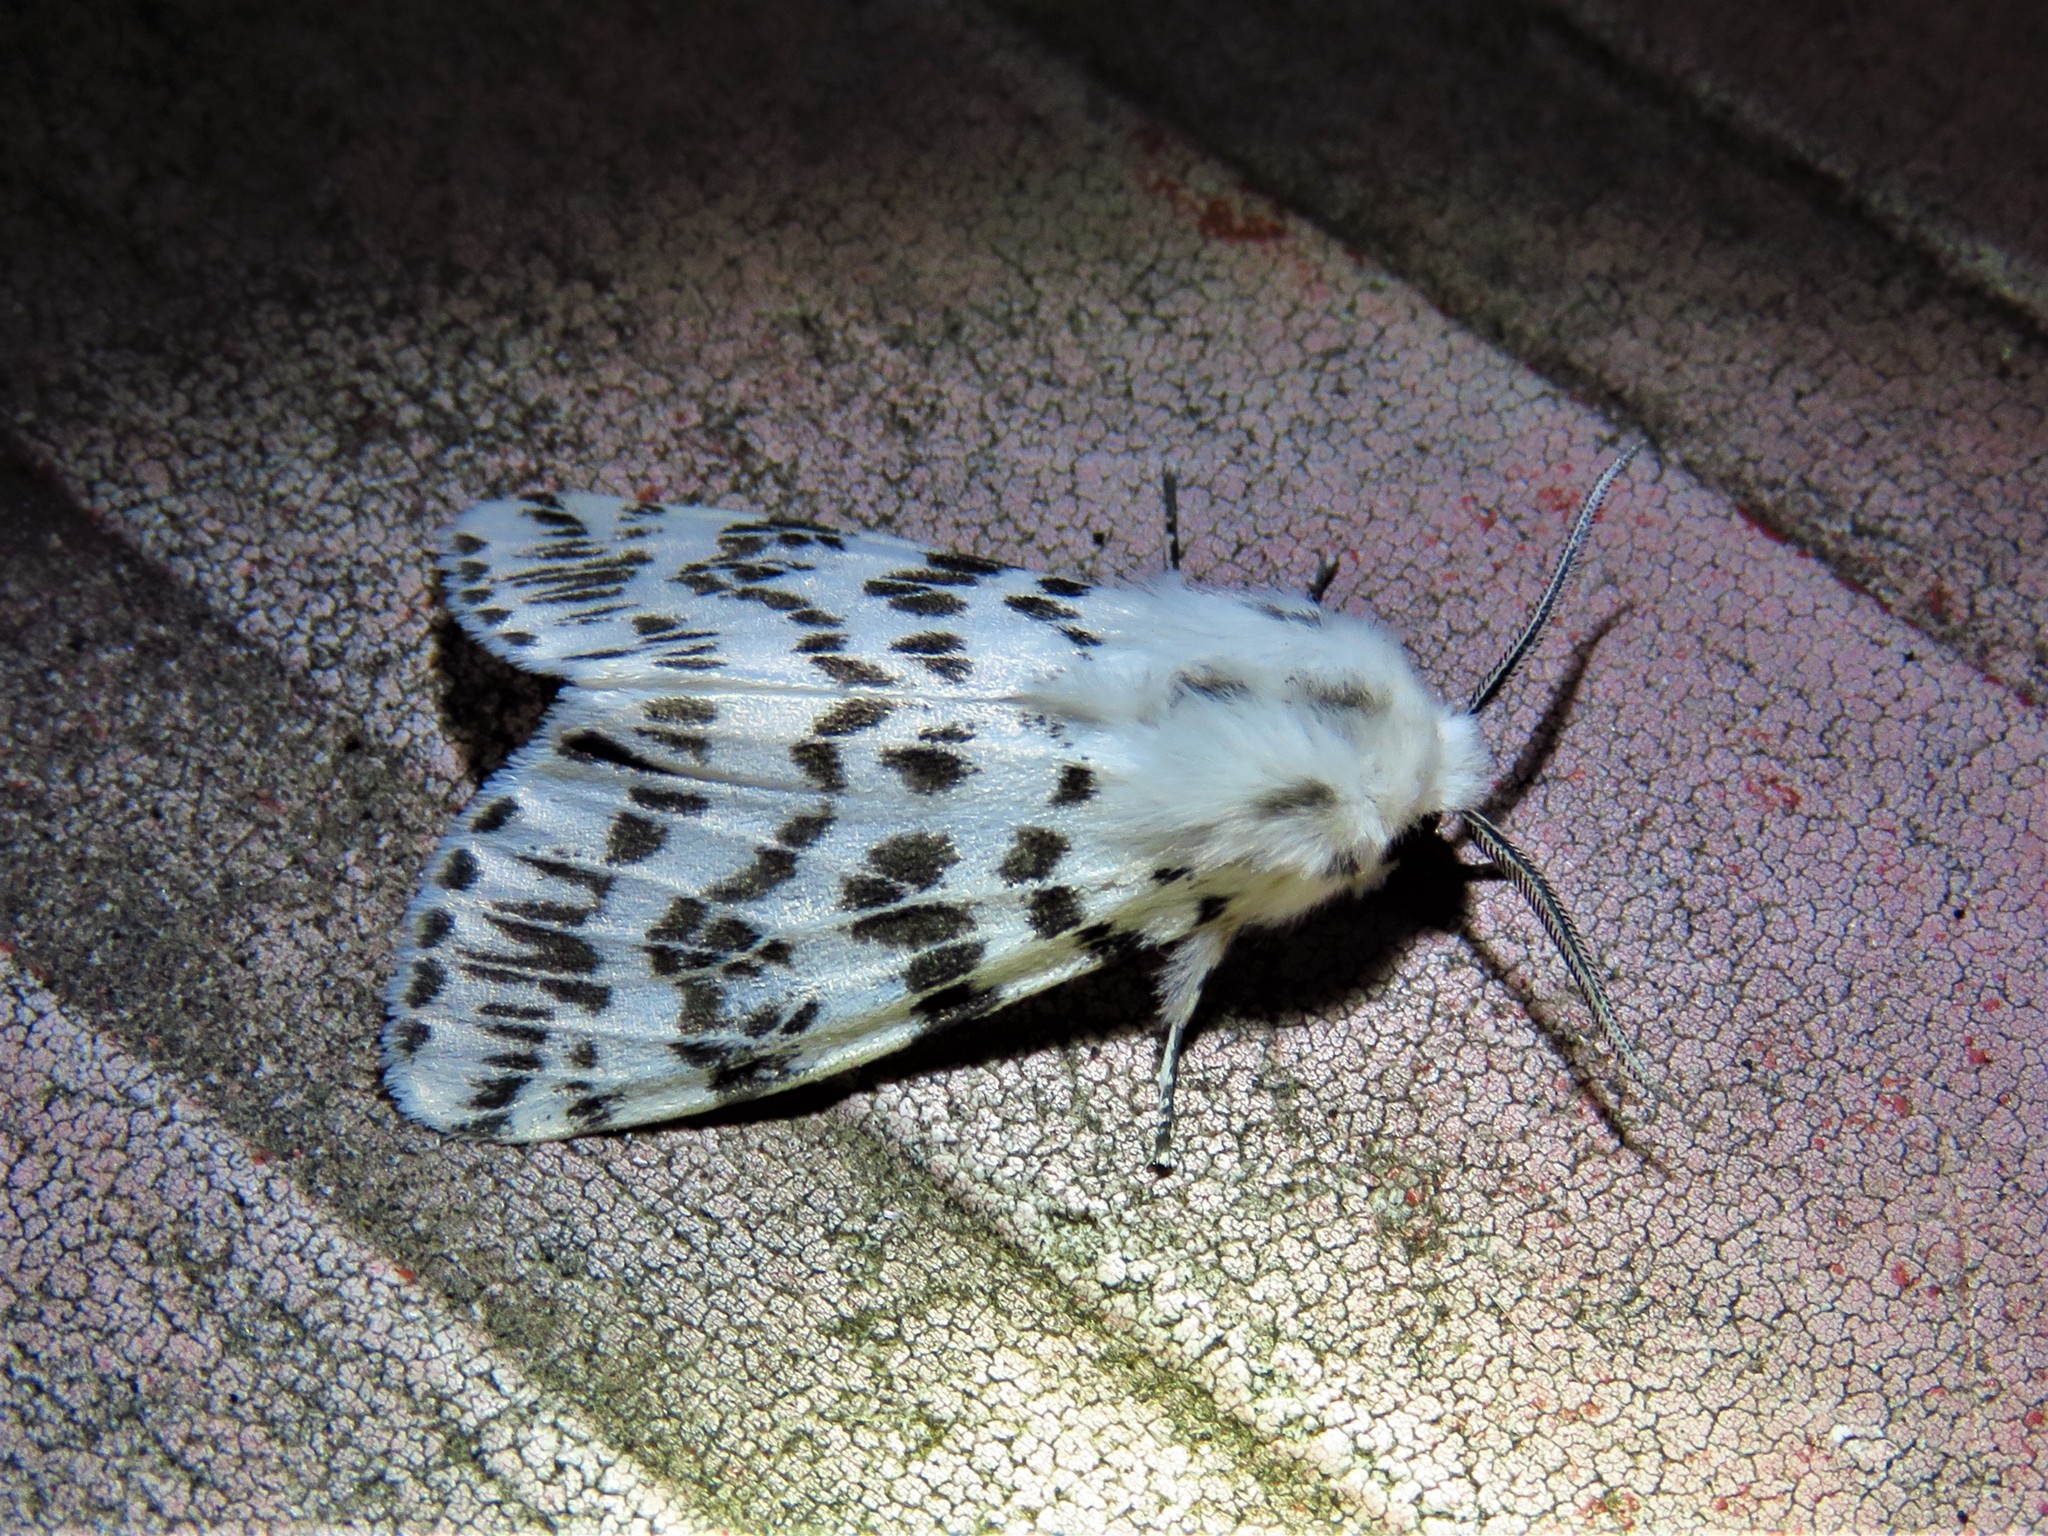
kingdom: Animalia
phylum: Arthropoda
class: Insecta
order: Lepidoptera
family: Erebidae
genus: Hyphantria
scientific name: Hyphantria cunea
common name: American white moth
